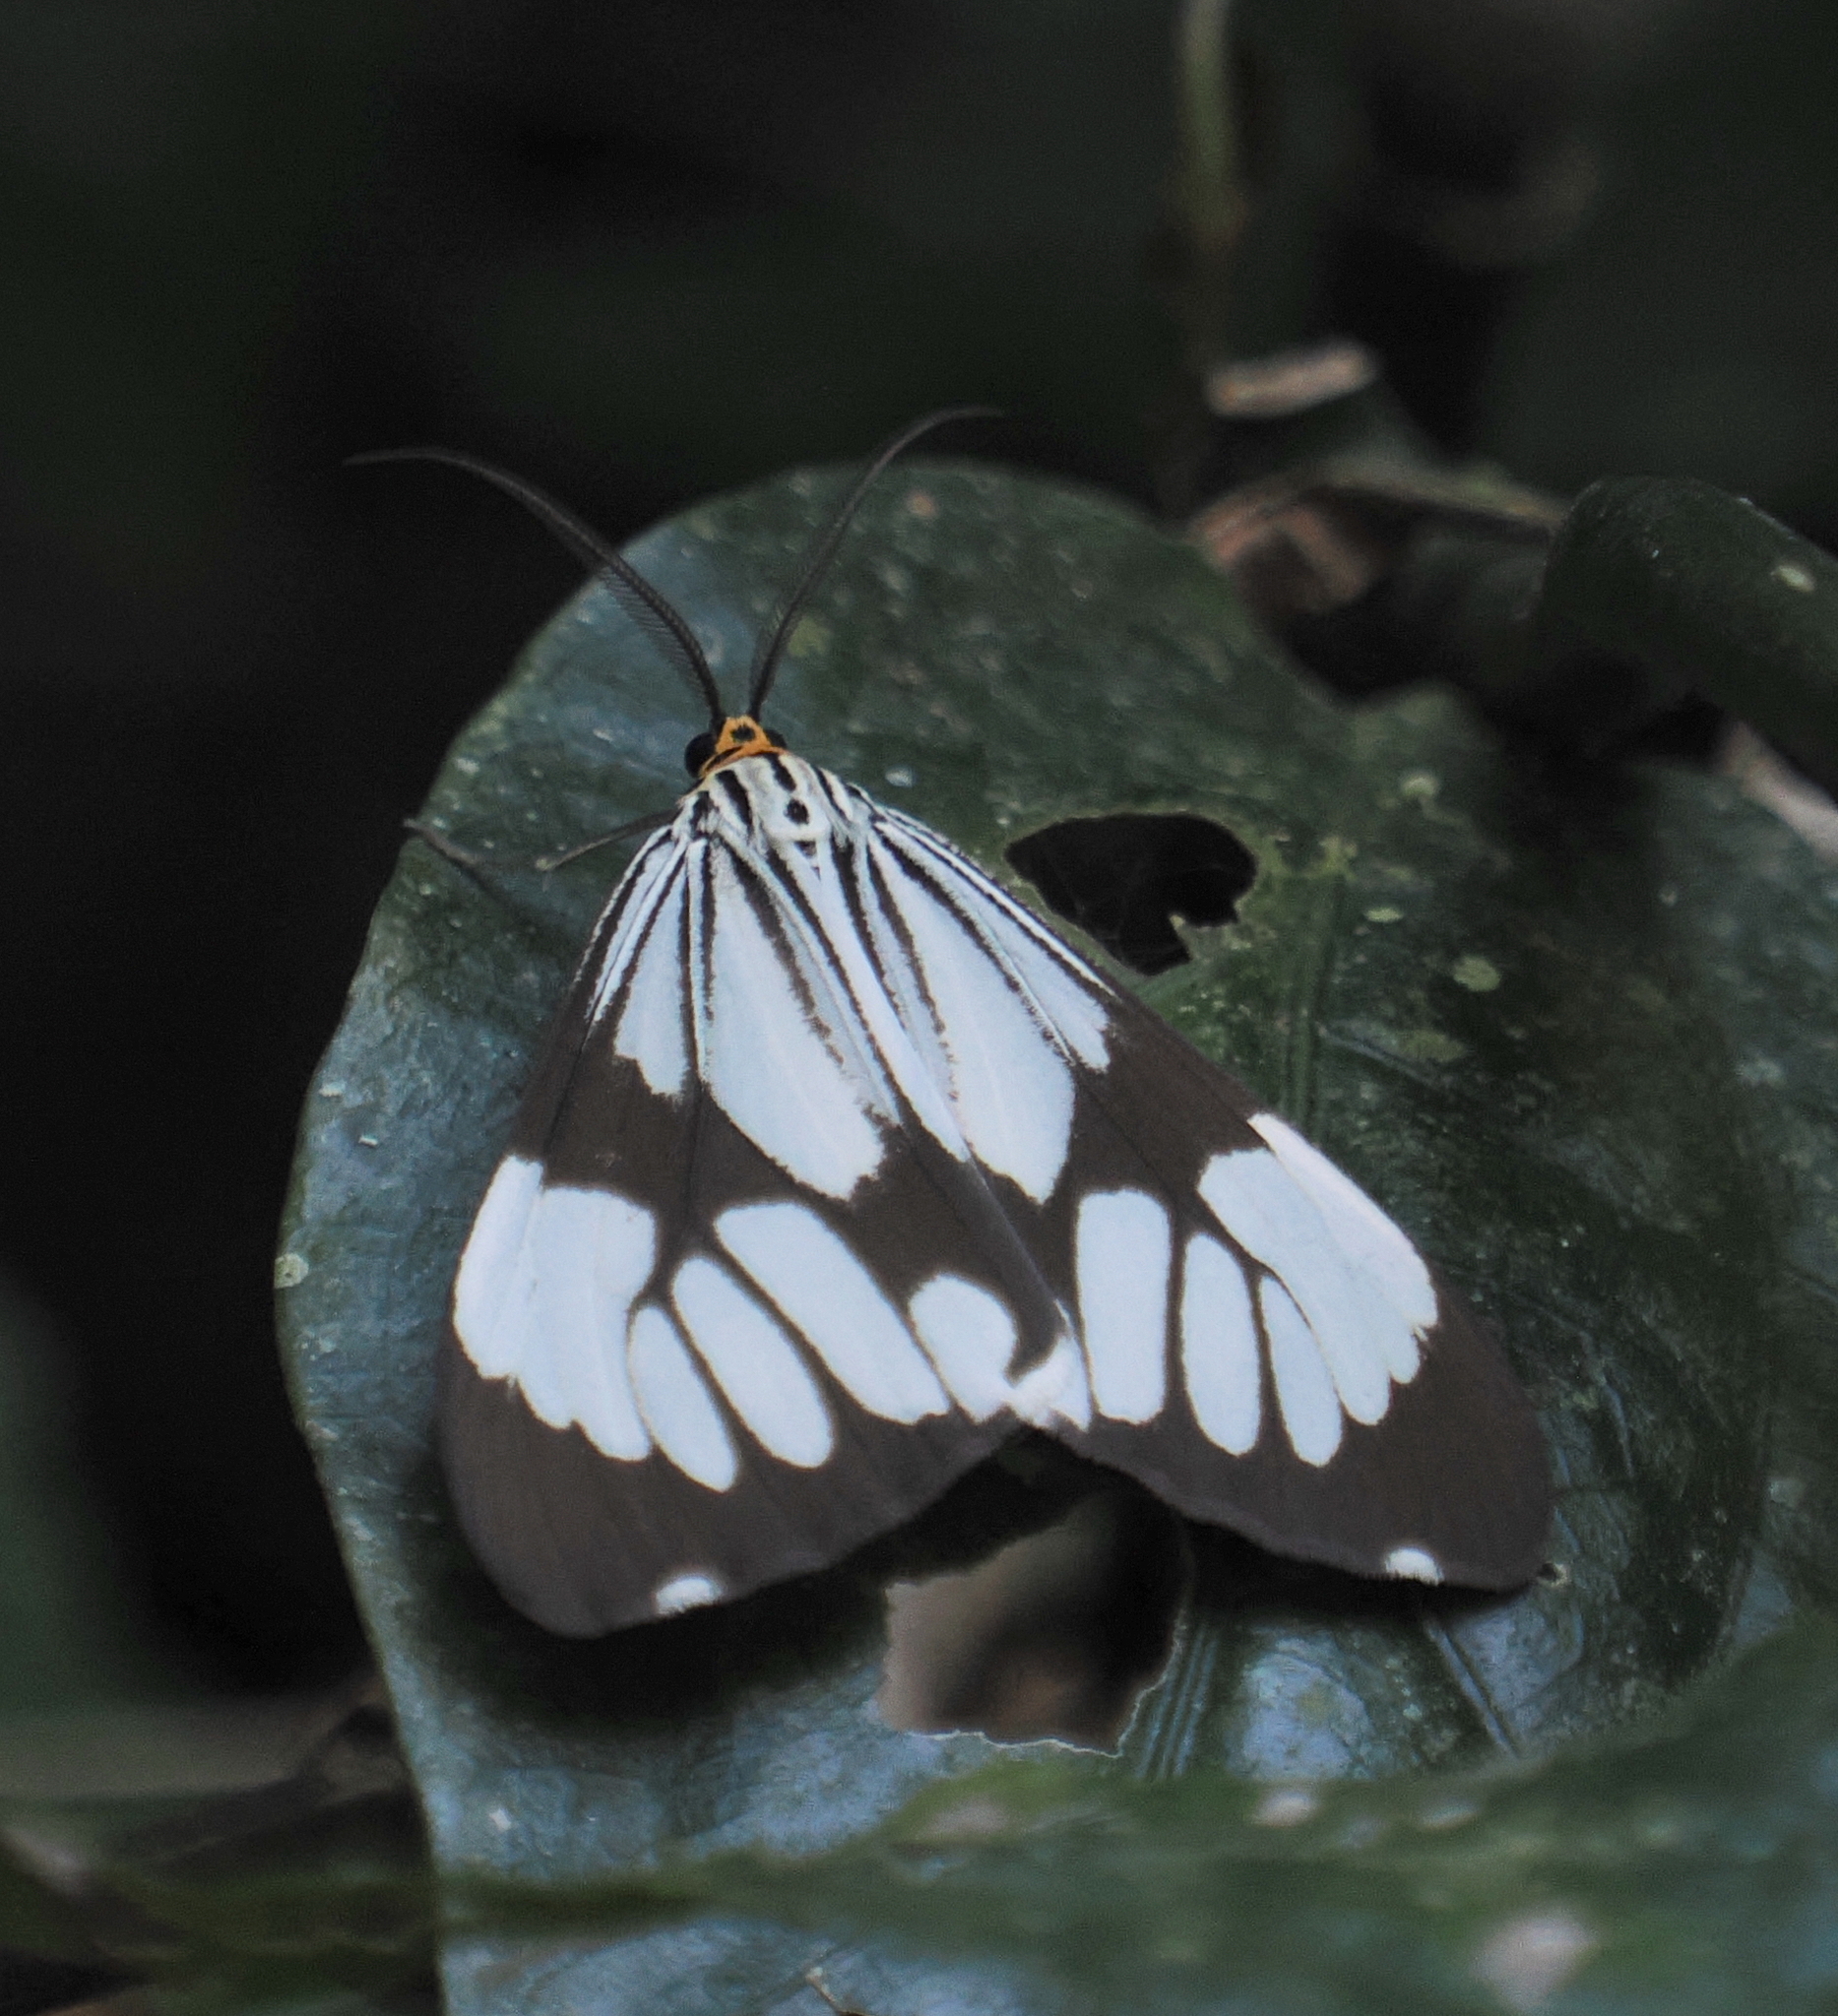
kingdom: Animalia
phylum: Arthropoda
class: Insecta
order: Lepidoptera
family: Erebidae
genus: Nyctemera
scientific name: Nyctemera coleta
